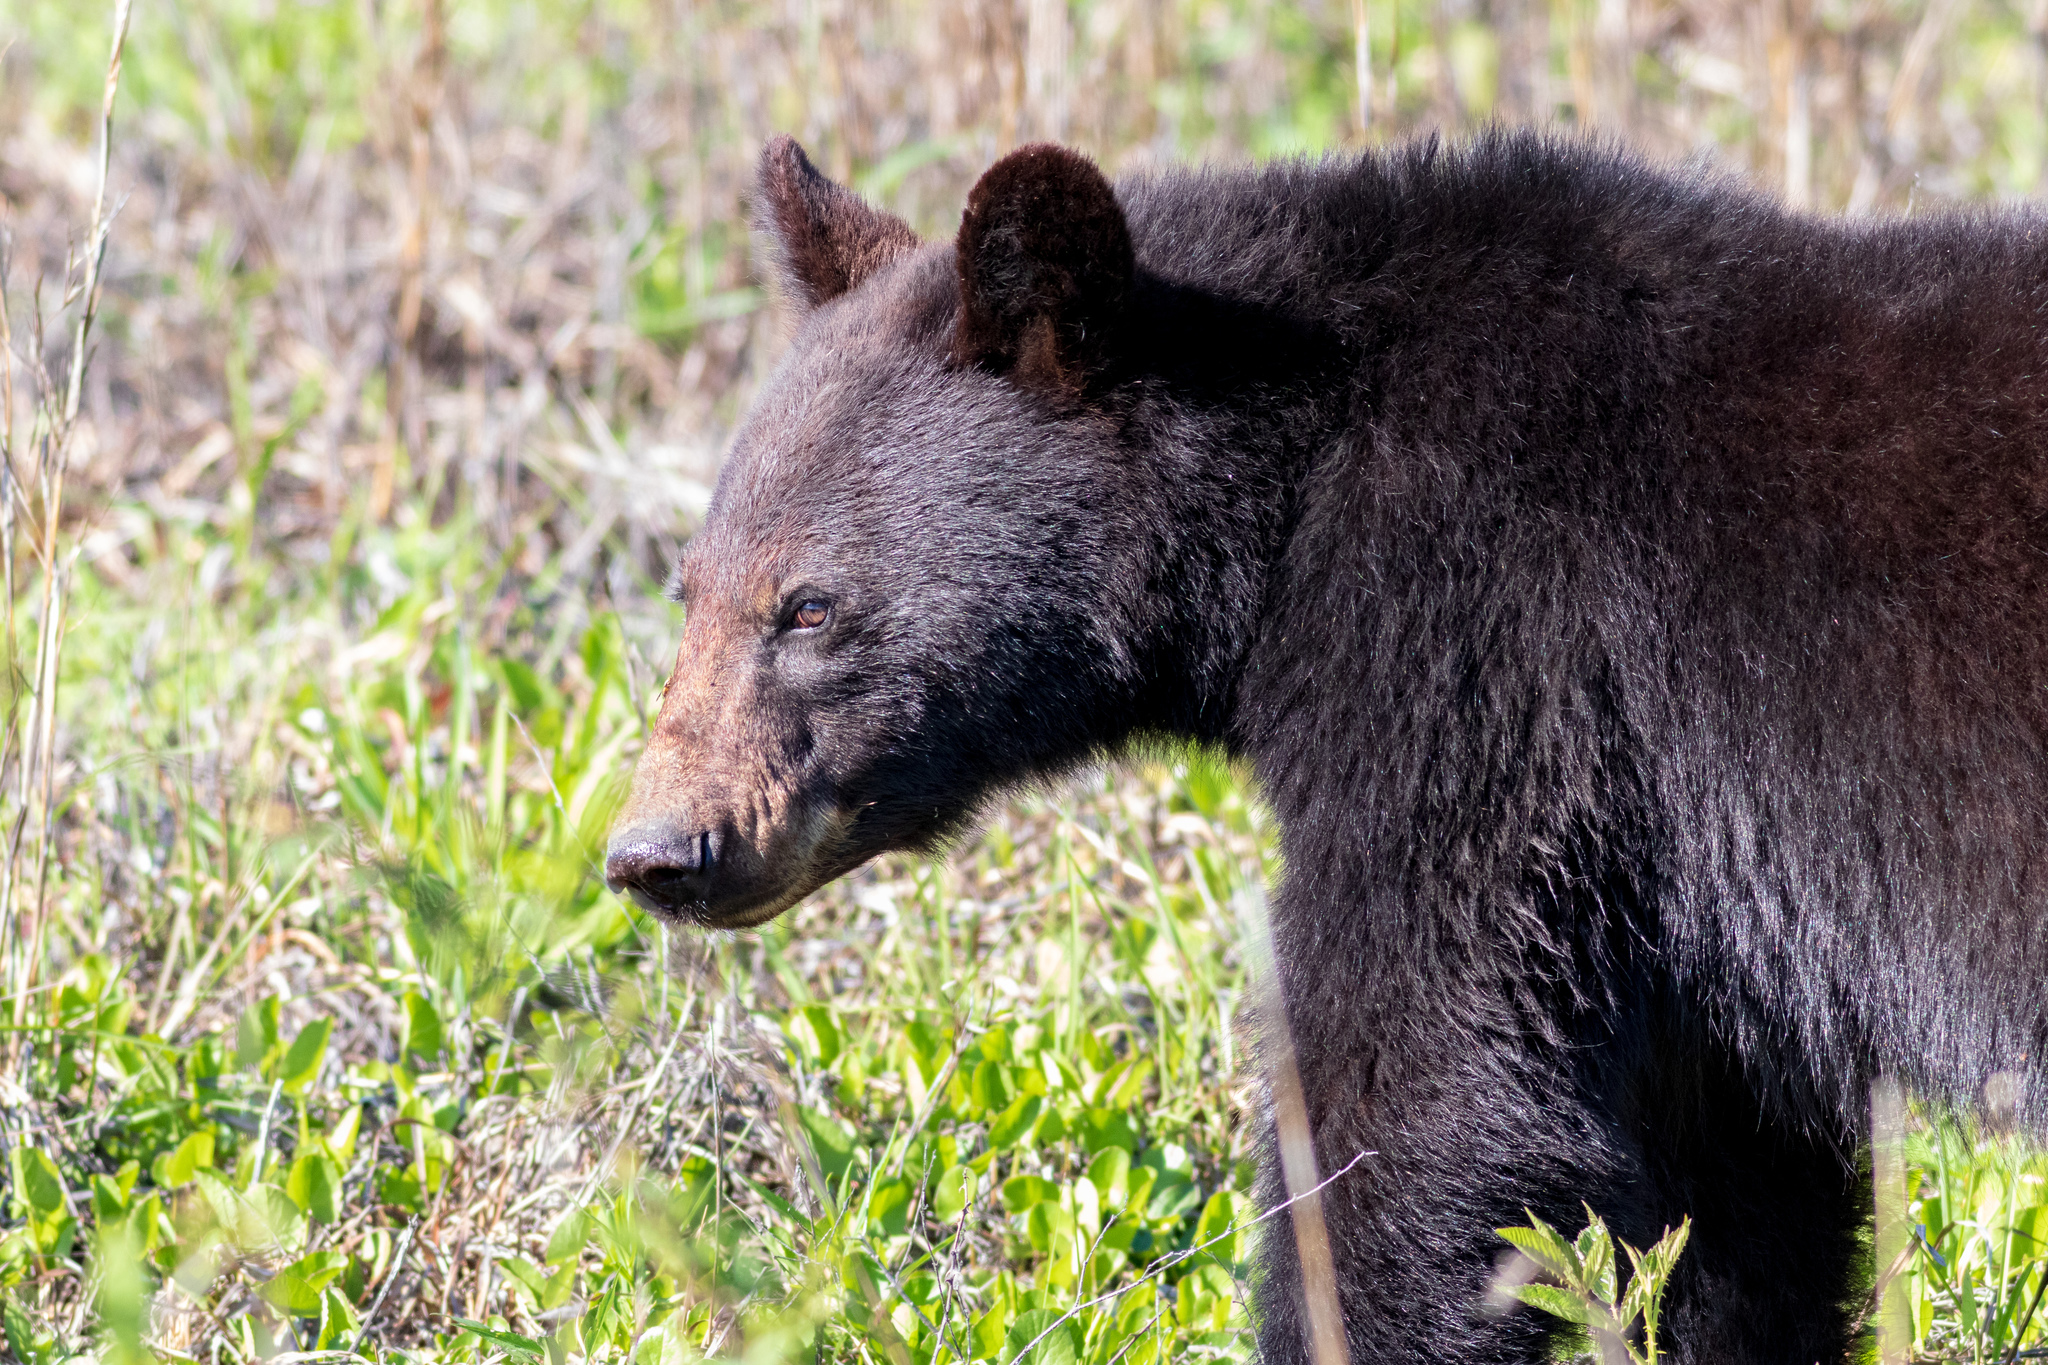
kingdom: Animalia
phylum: Chordata
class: Mammalia
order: Carnivora
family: Ursidae
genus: Ursus
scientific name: Ursus americanus
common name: American black bear
